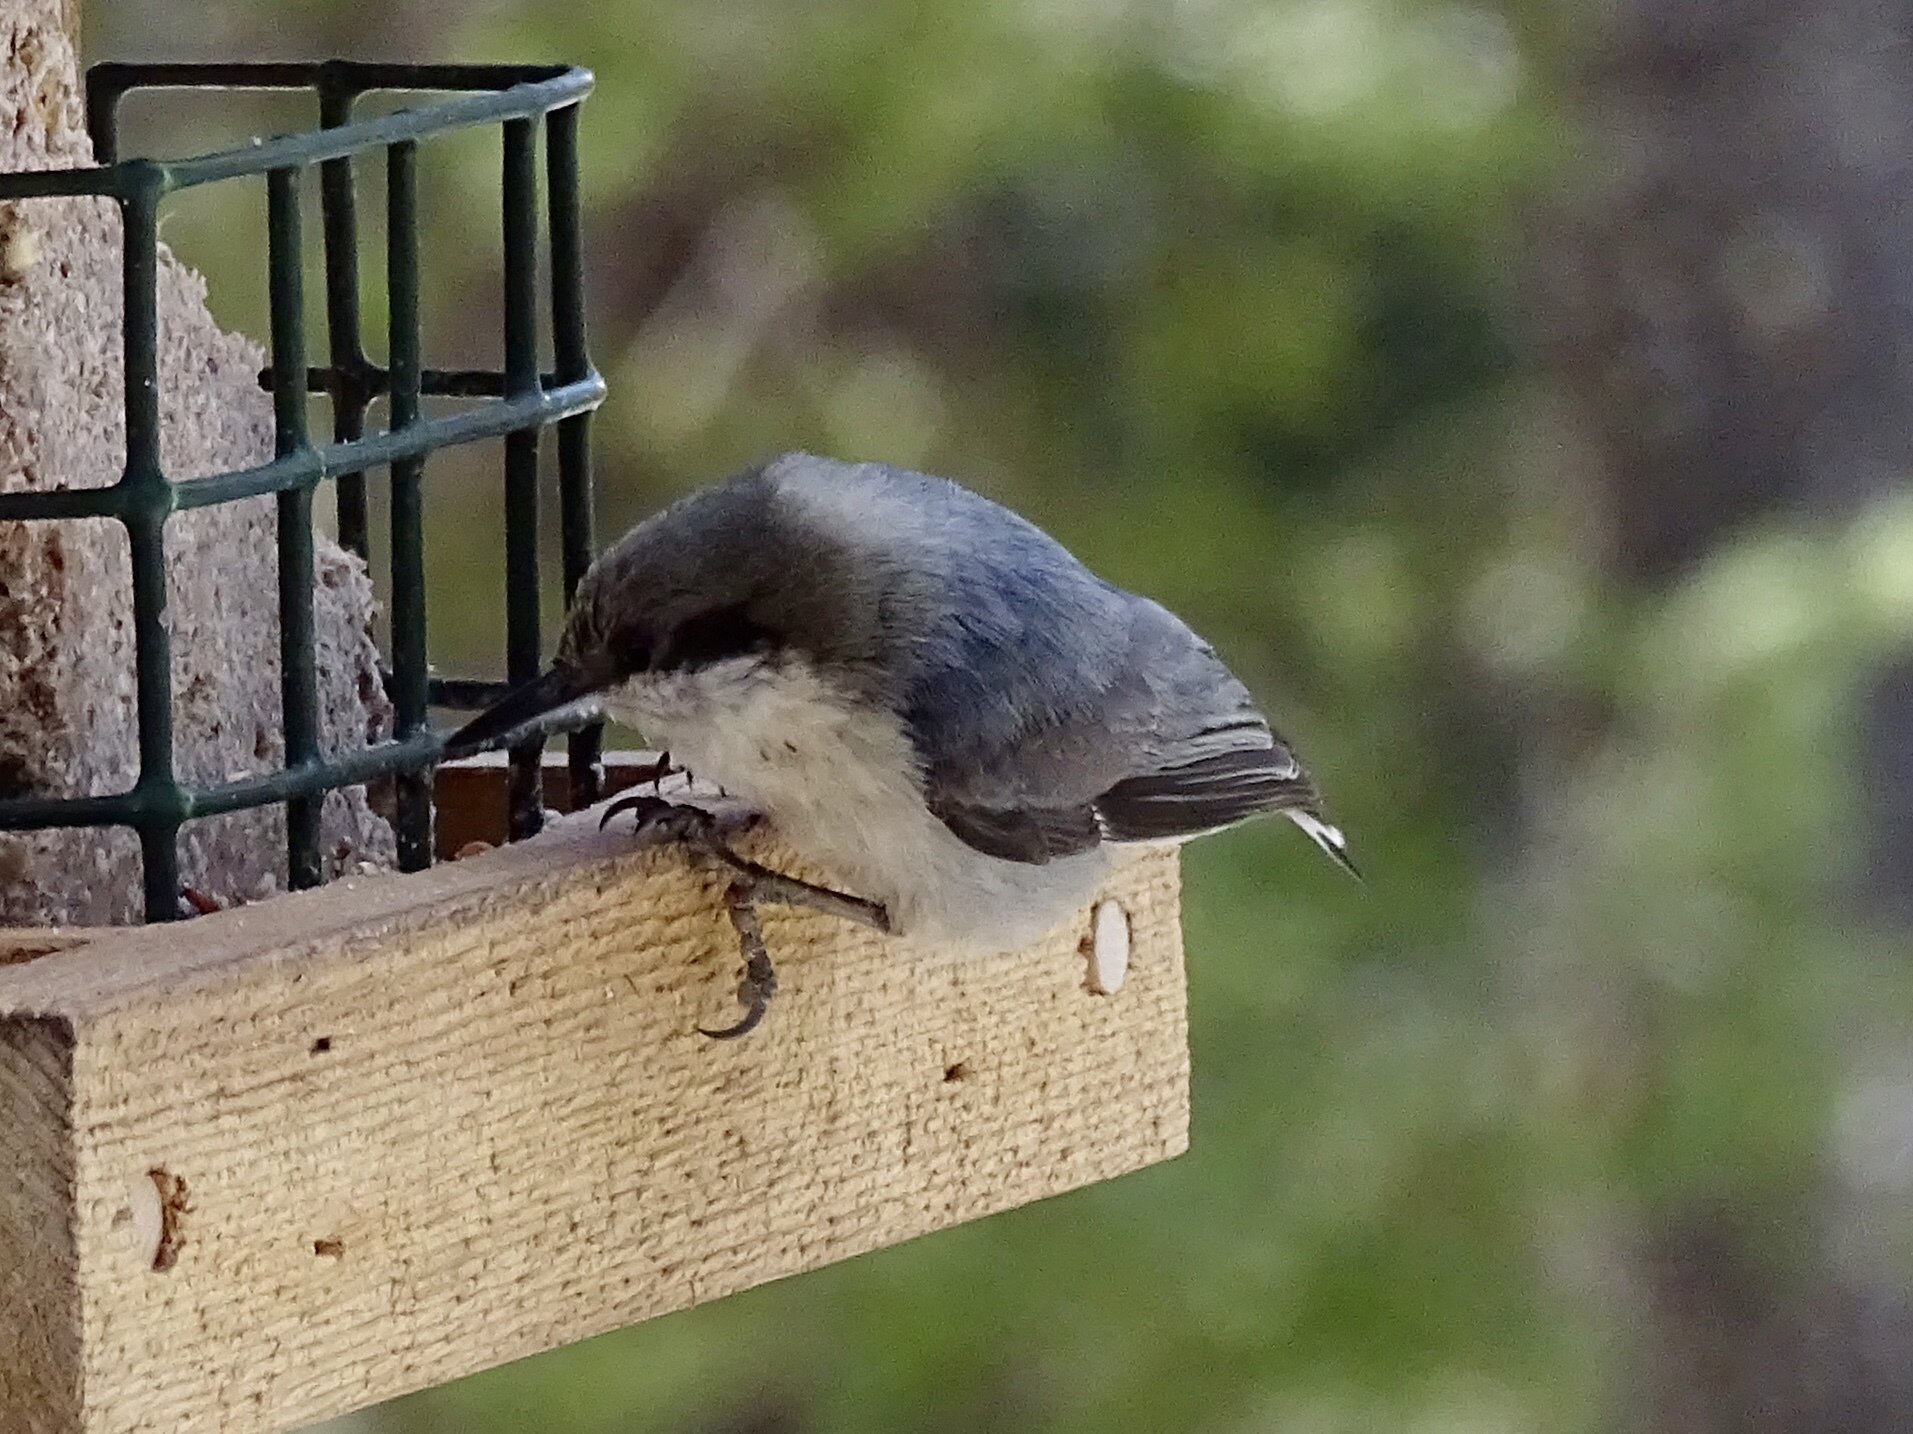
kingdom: Animalia
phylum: Chordata
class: Aves
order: Passeriformes
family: Sittidae
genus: Sitta
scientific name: Sitta pygmaea
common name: Pygmy nuthatch
